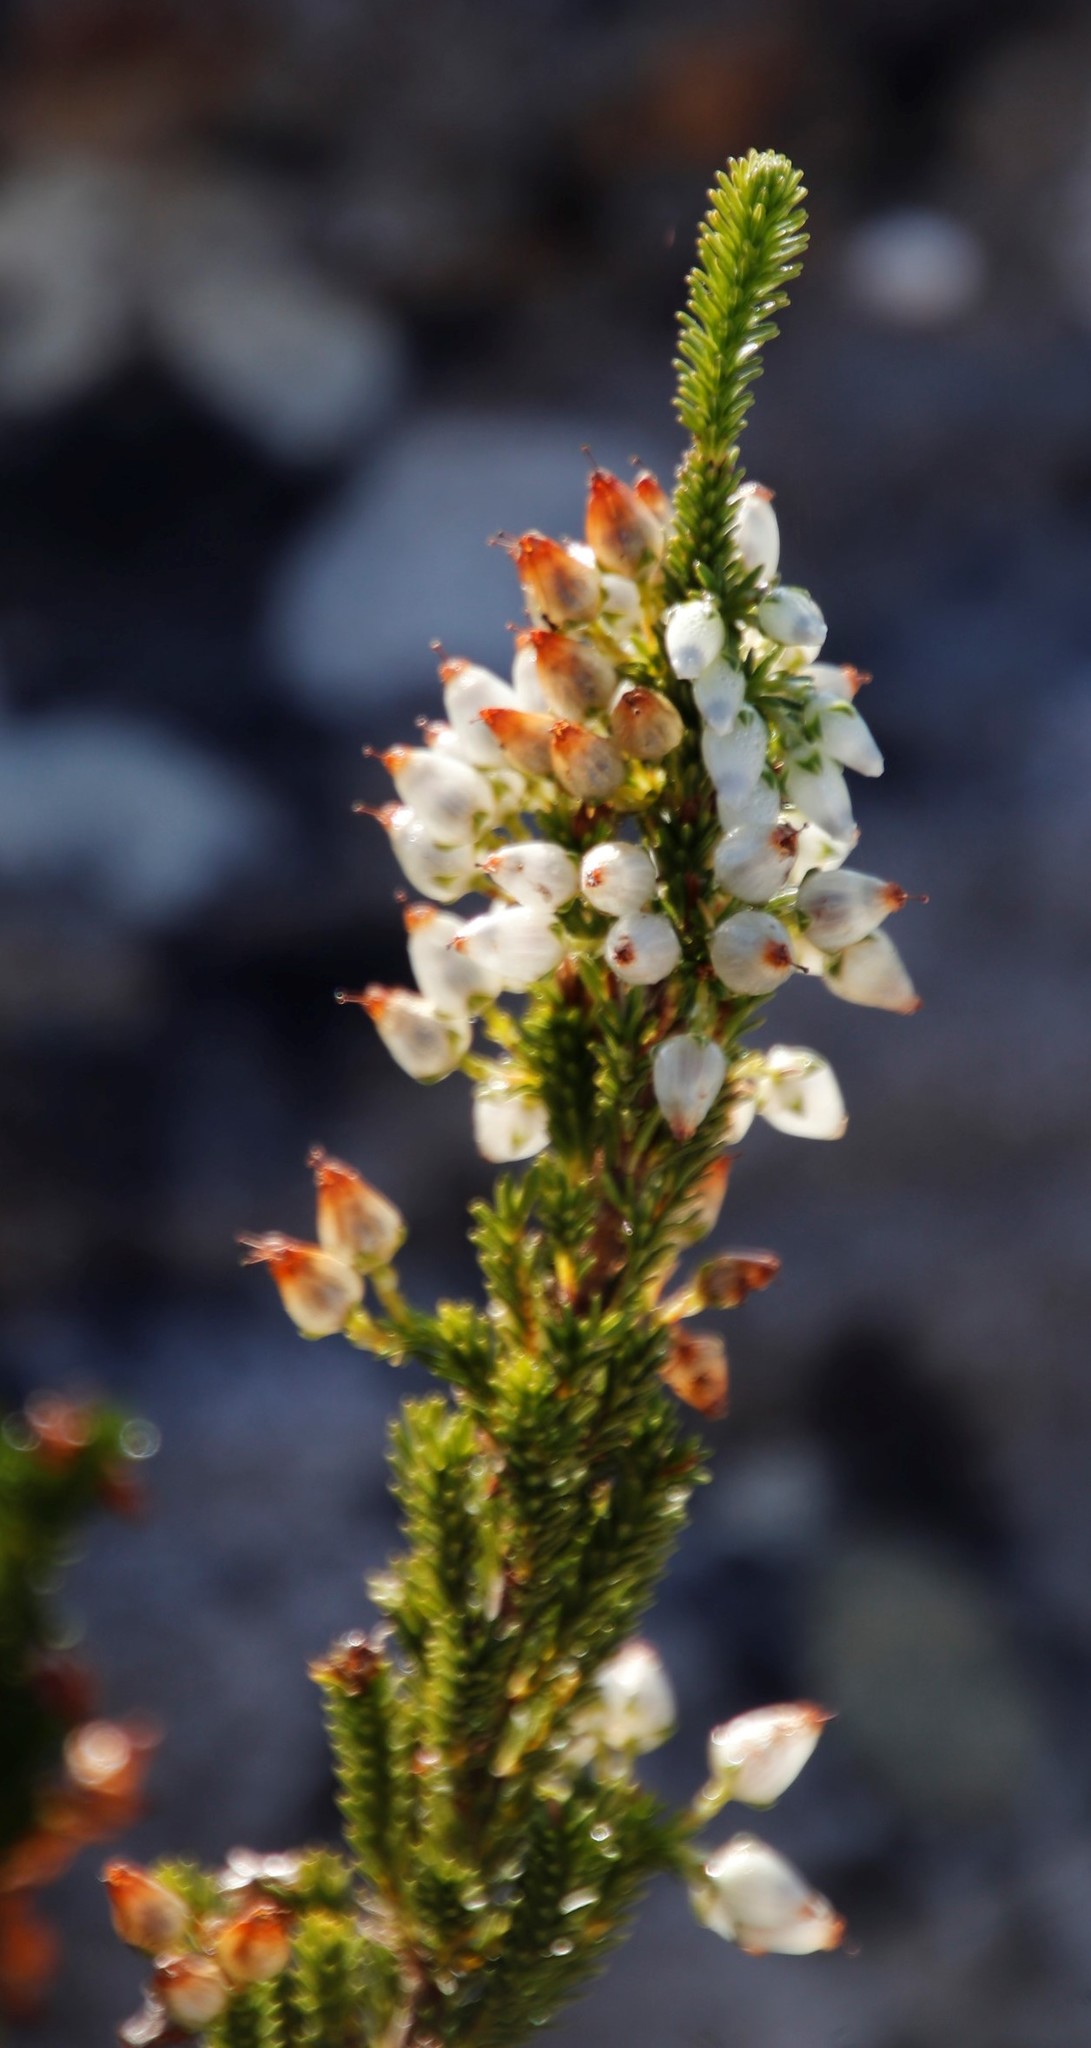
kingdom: Plantae
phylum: Tracheophyta
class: Magnoliopsida
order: Ericales
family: Ericaceae
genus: Erica
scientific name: Erica physodes
